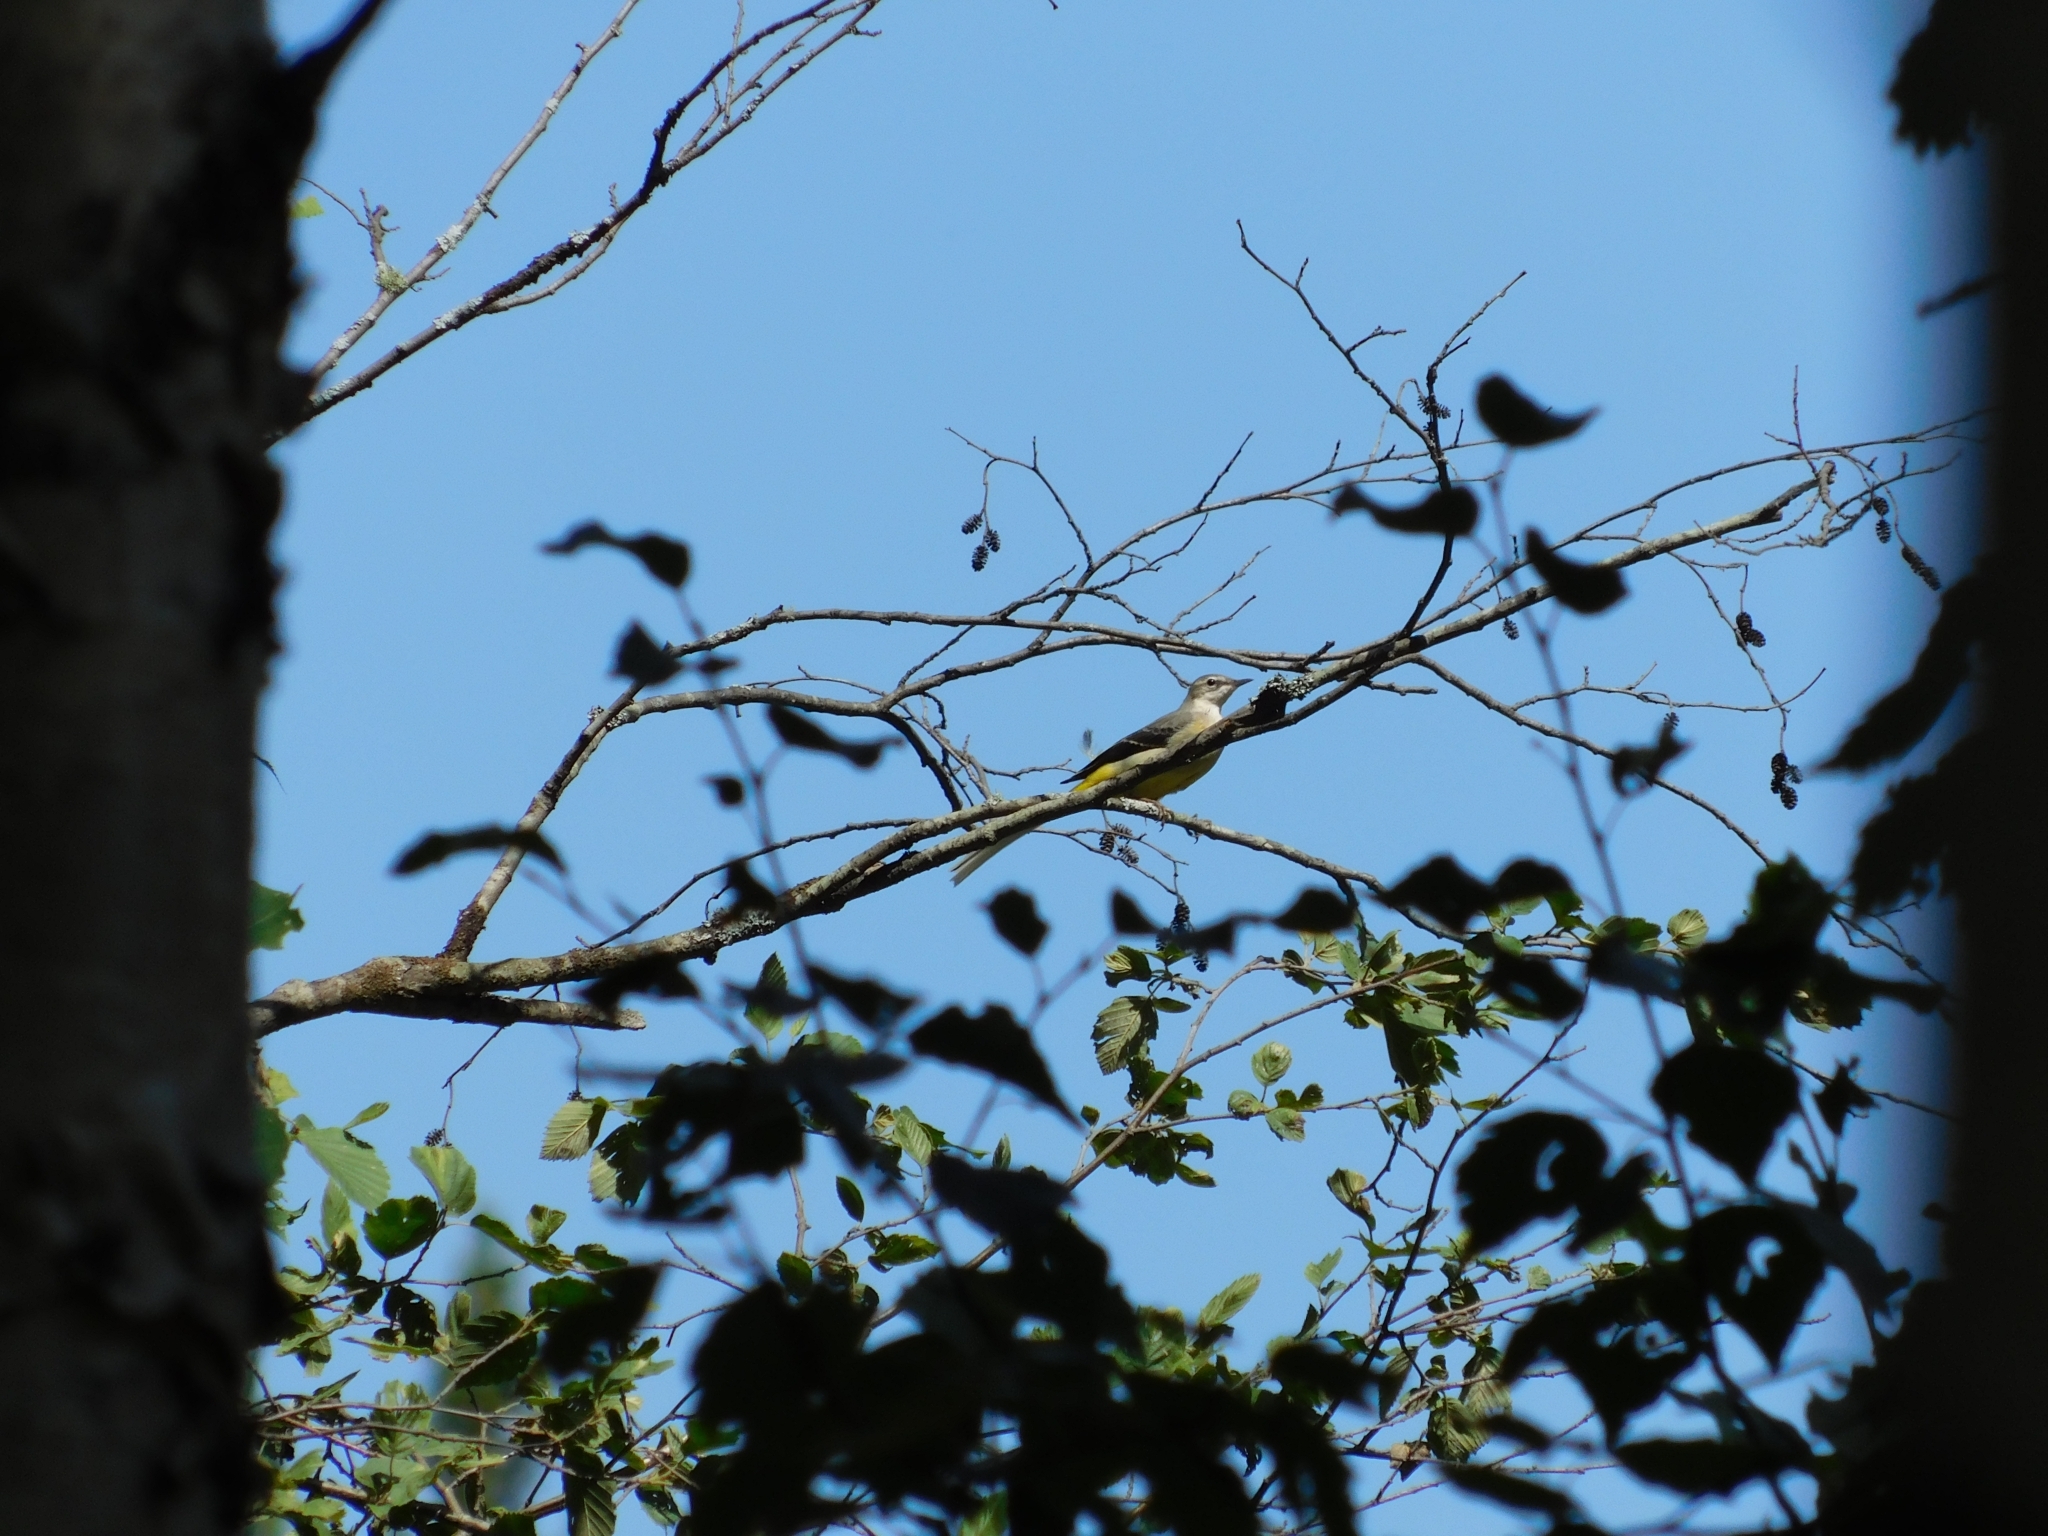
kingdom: Animalia
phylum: Chordata
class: Aves
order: Passeriformes
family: Motacillidae
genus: Motacilla
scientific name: Motacilla cinerea
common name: Grey wagtail
